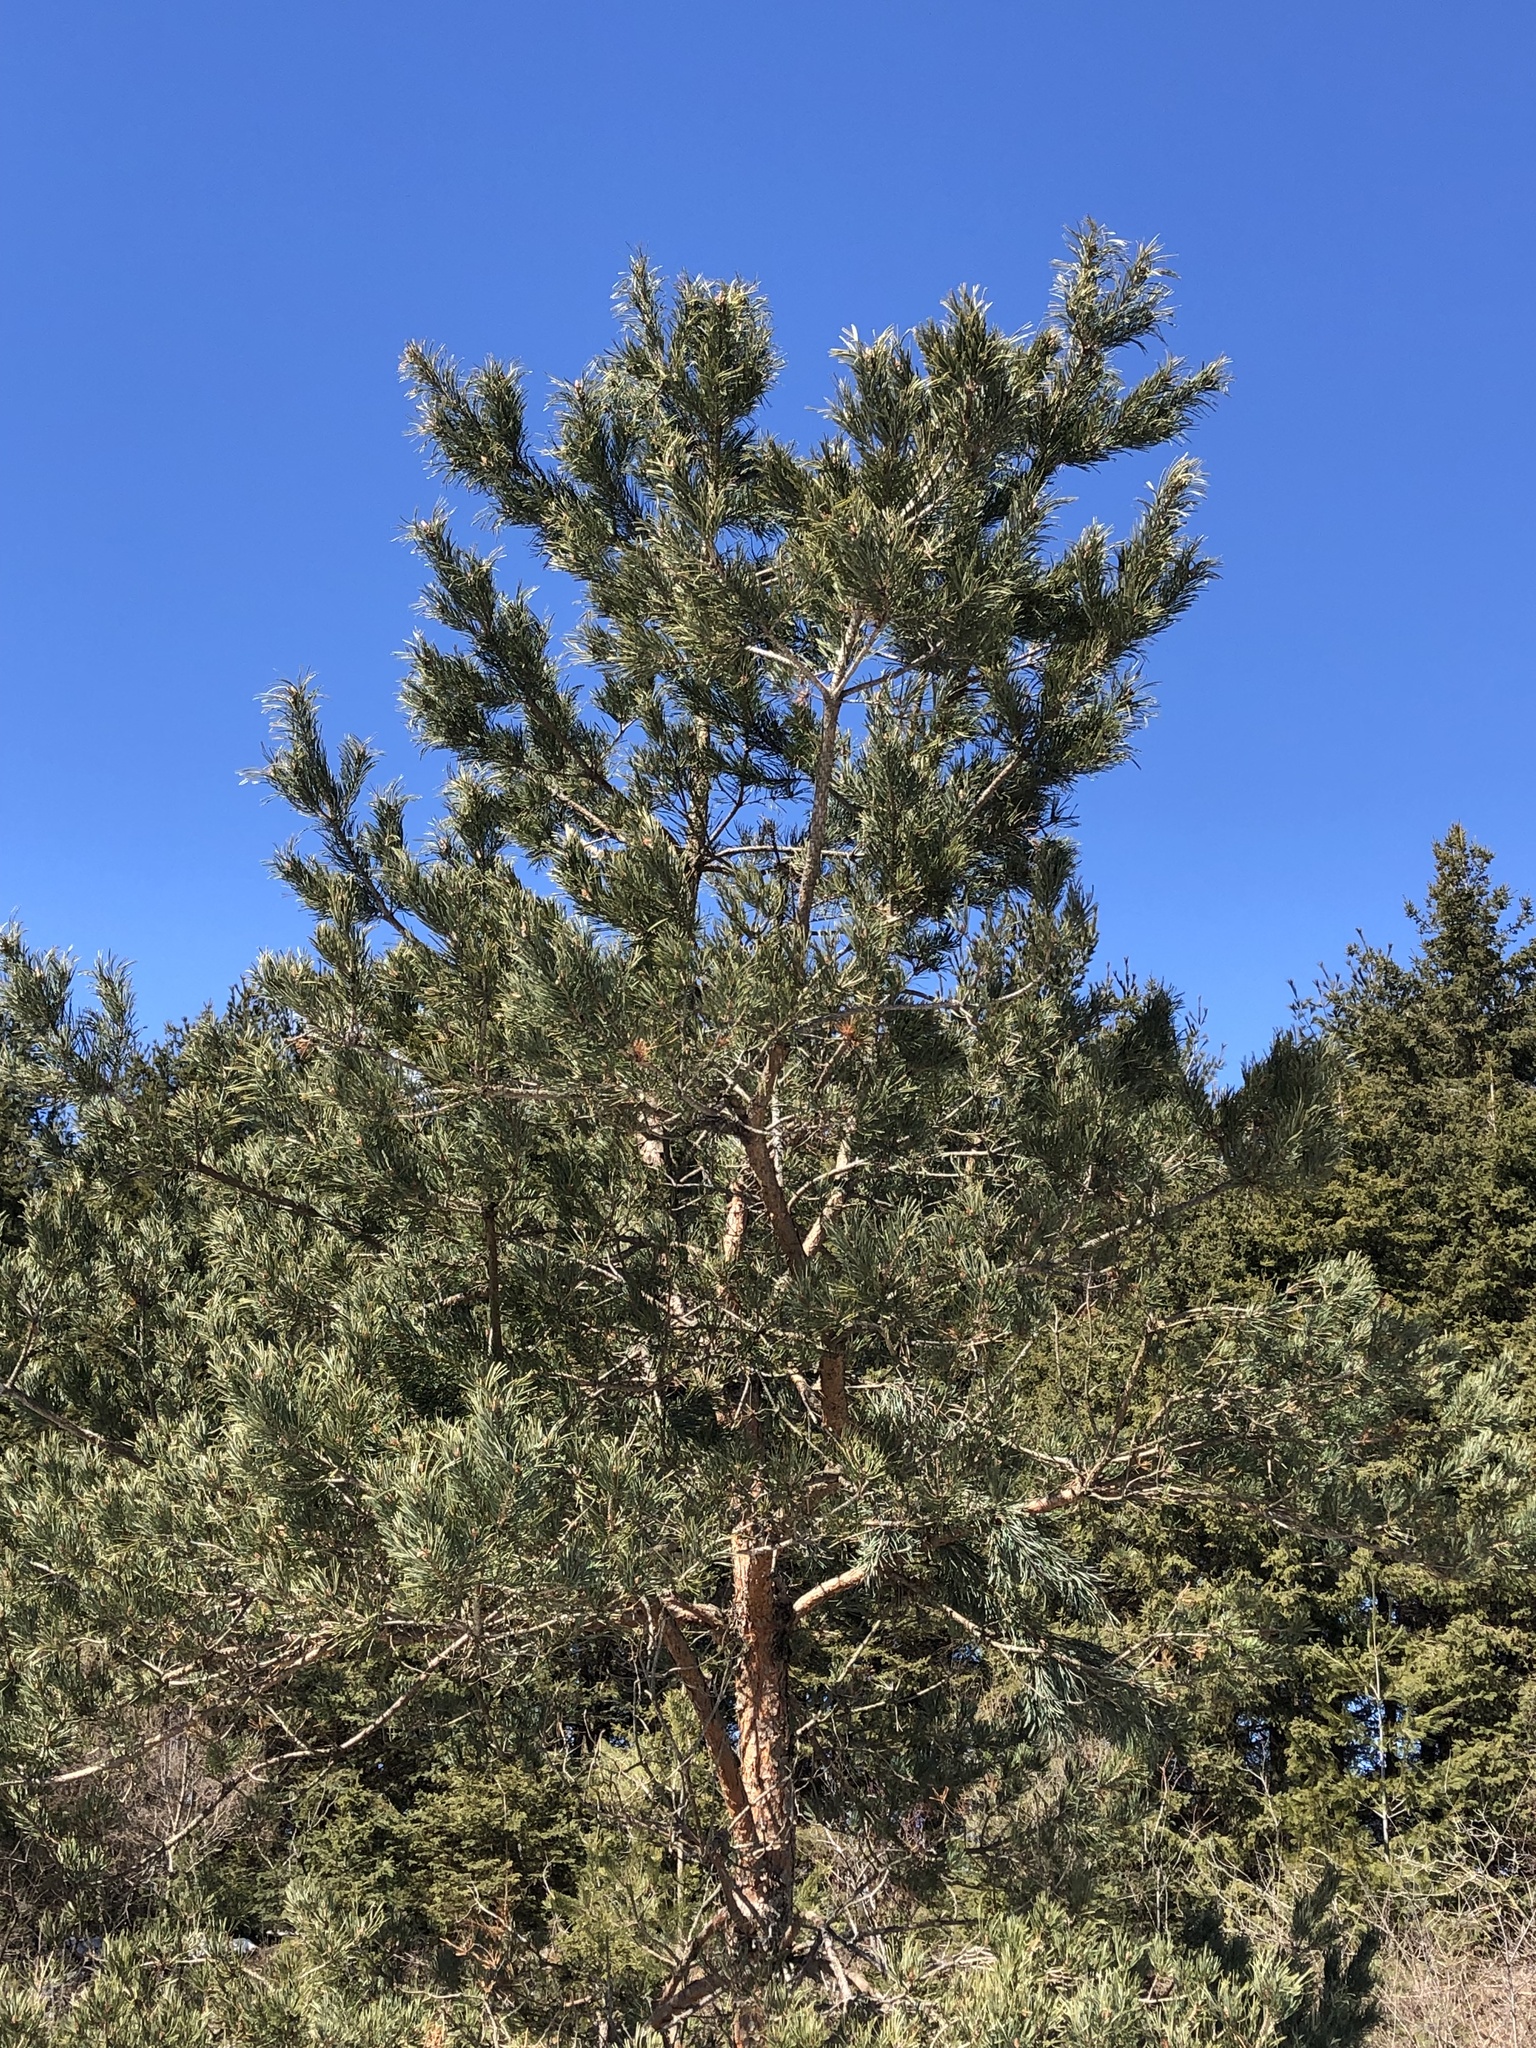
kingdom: Plantae
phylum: Tracheophyta
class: Pinopsida
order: Pinales
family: Pinaceae
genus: Pinus
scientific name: Pinus sylvestris
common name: Scots pine
